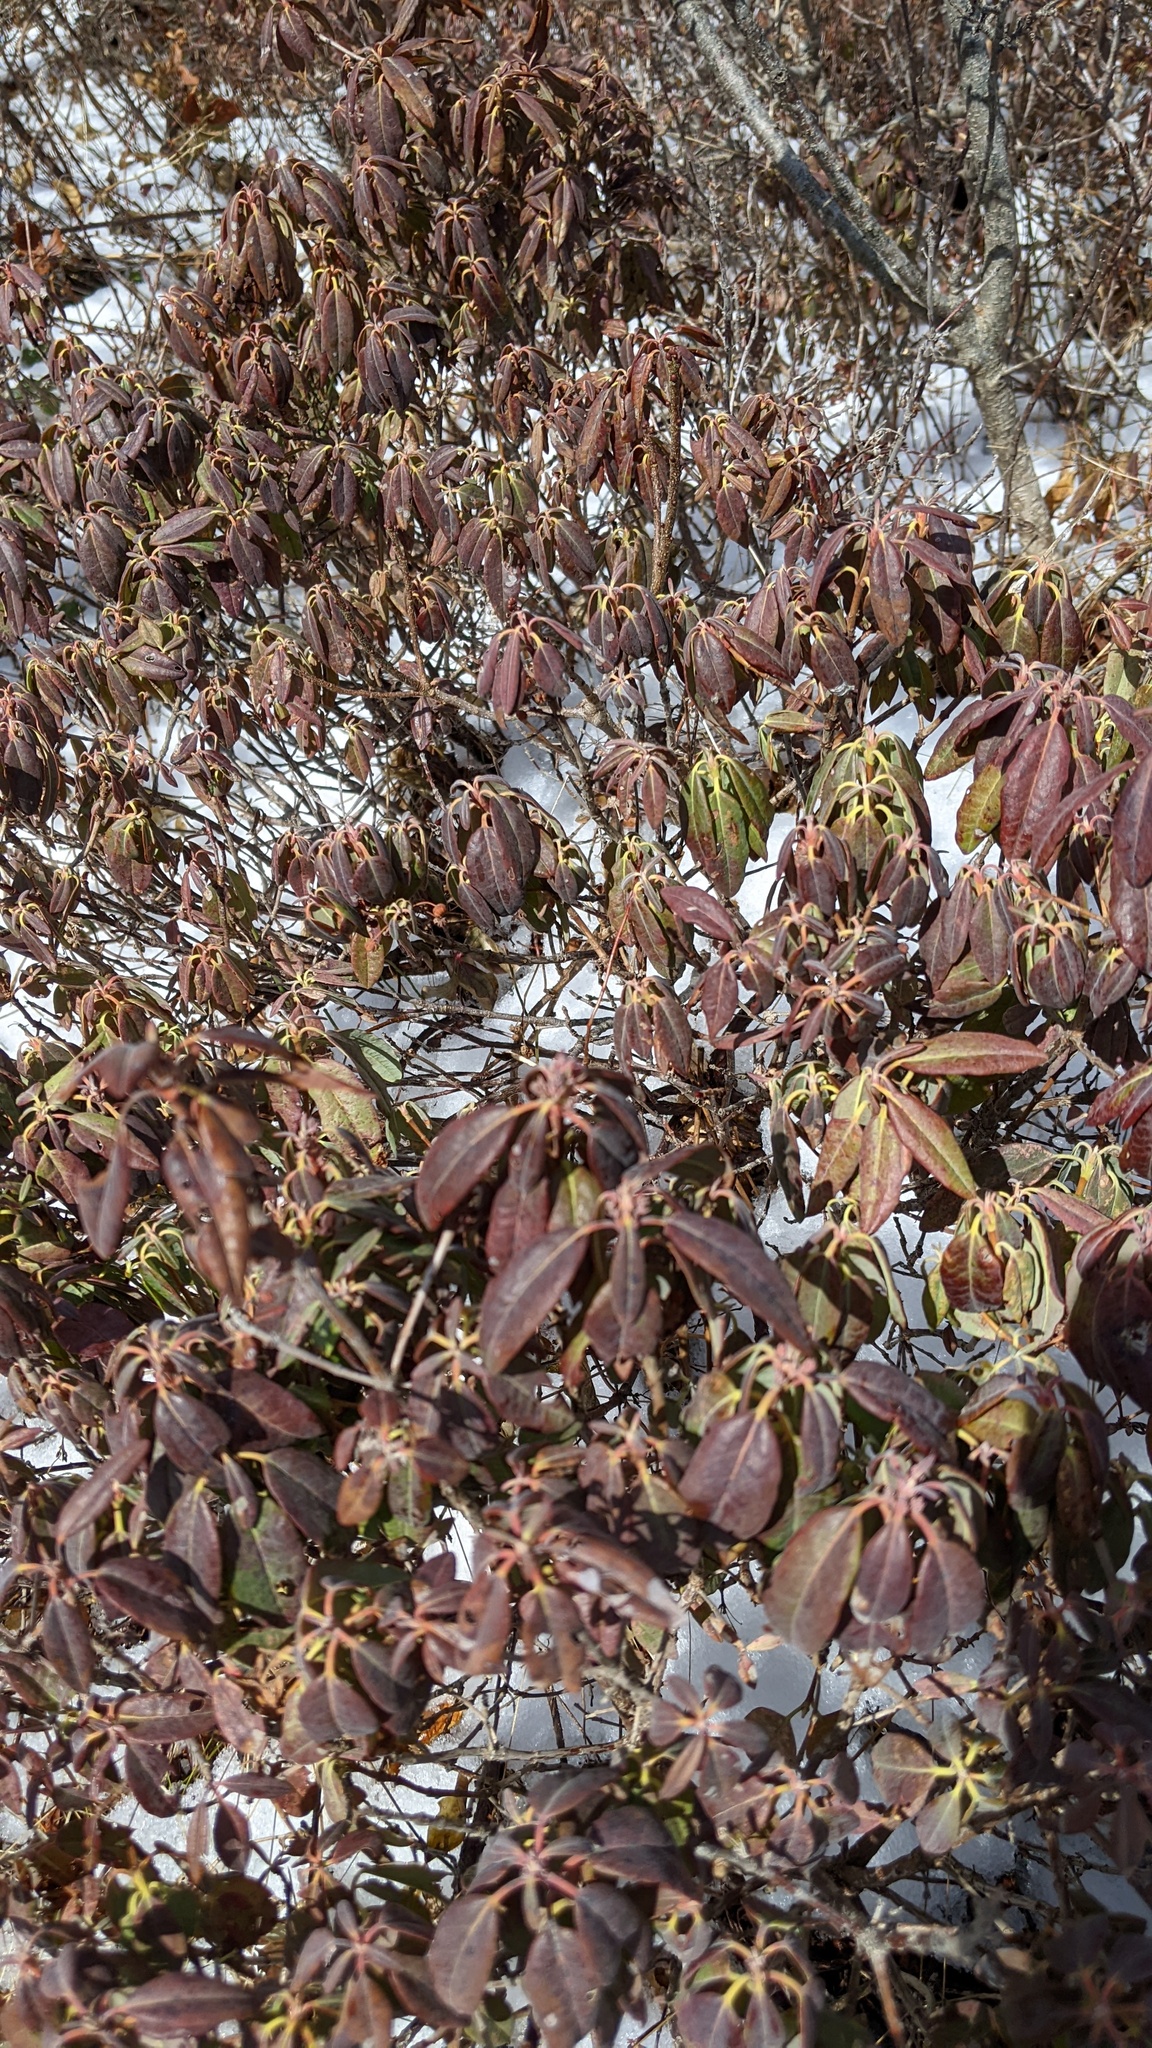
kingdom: Plantae
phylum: Tracheophyta
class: Magnoliopsida
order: Ericales
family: Ericaceae
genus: Kalmia
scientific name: Kalmia angustifolia
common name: Sheep-laurel
